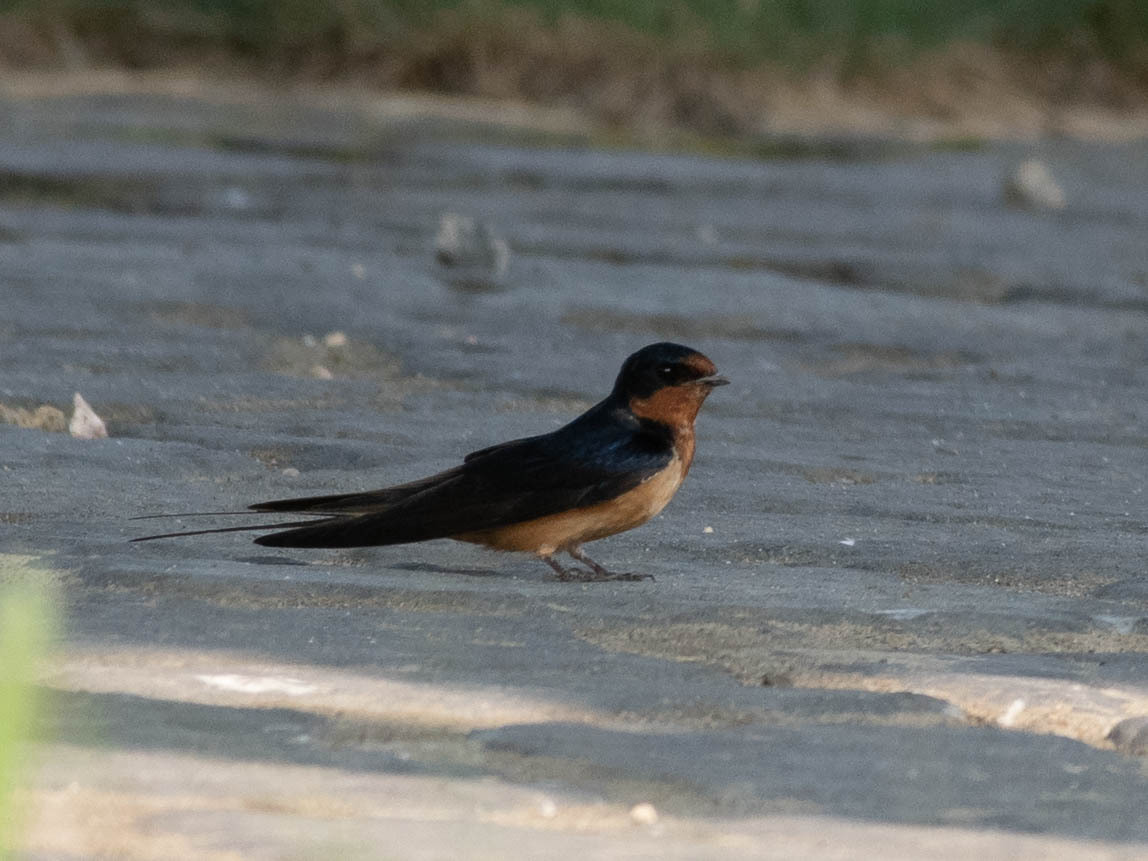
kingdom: Animalia
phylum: Chordata
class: Aves
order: Passeriformes
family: Hirundinidae
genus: Hirundo
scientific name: Hirundo rustica
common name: Barn swallow
